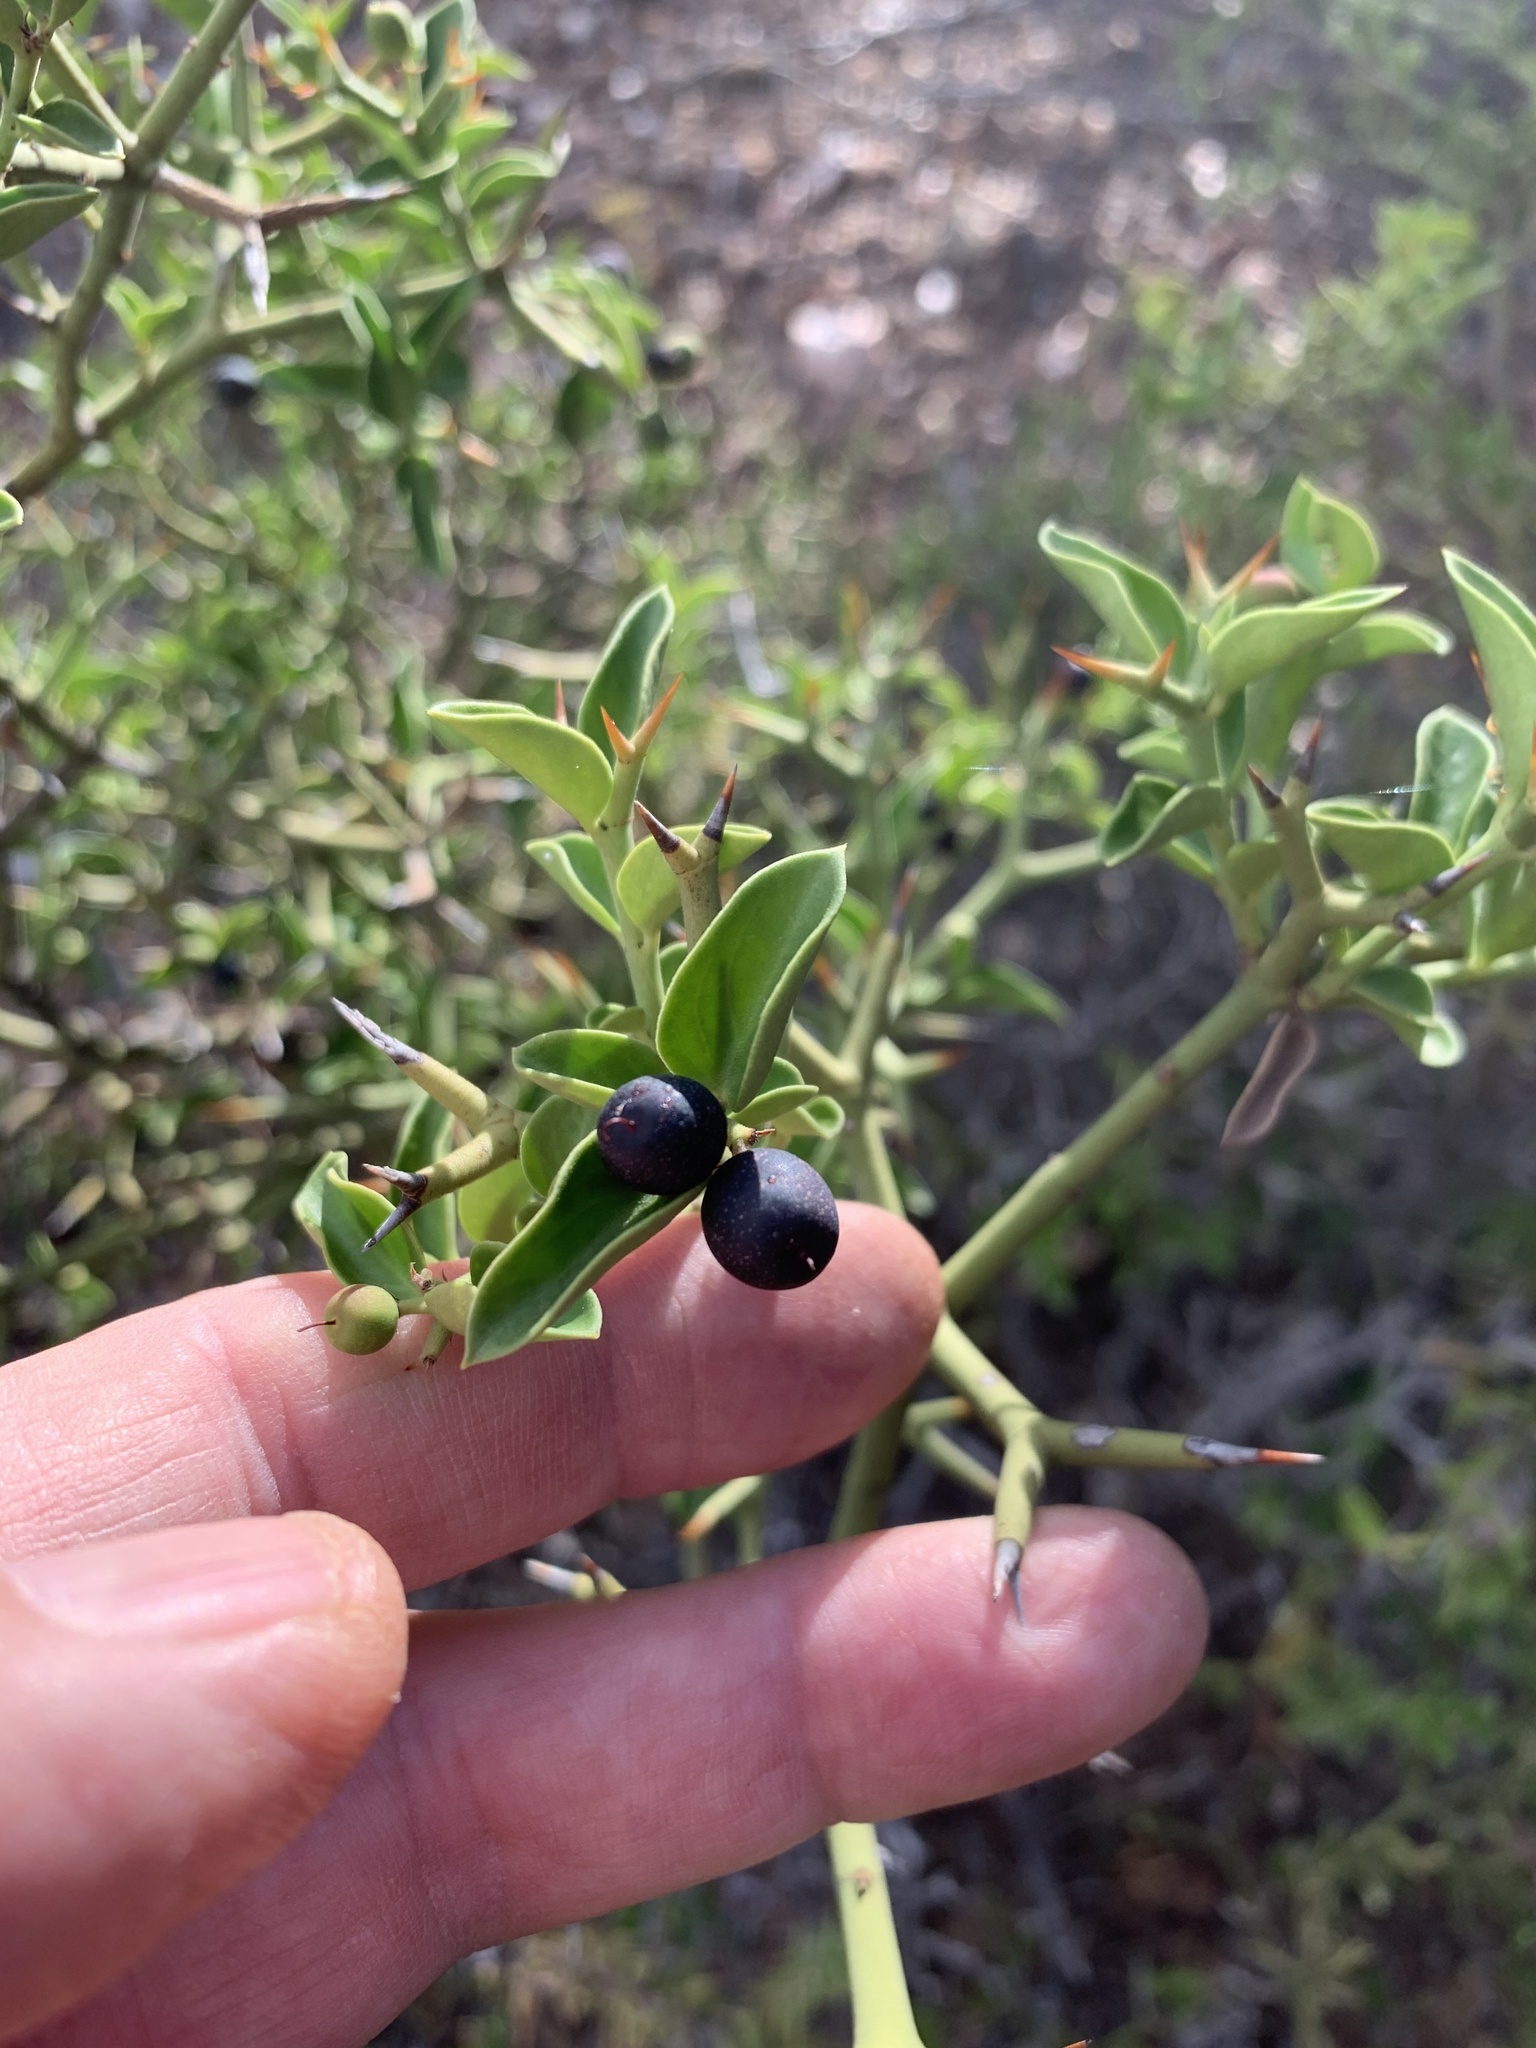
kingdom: Plantae
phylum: Tracheophyta
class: Magnoliopsida
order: Gentianales
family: Apocynaceae
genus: Carissa
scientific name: Carissa haematocarpa
